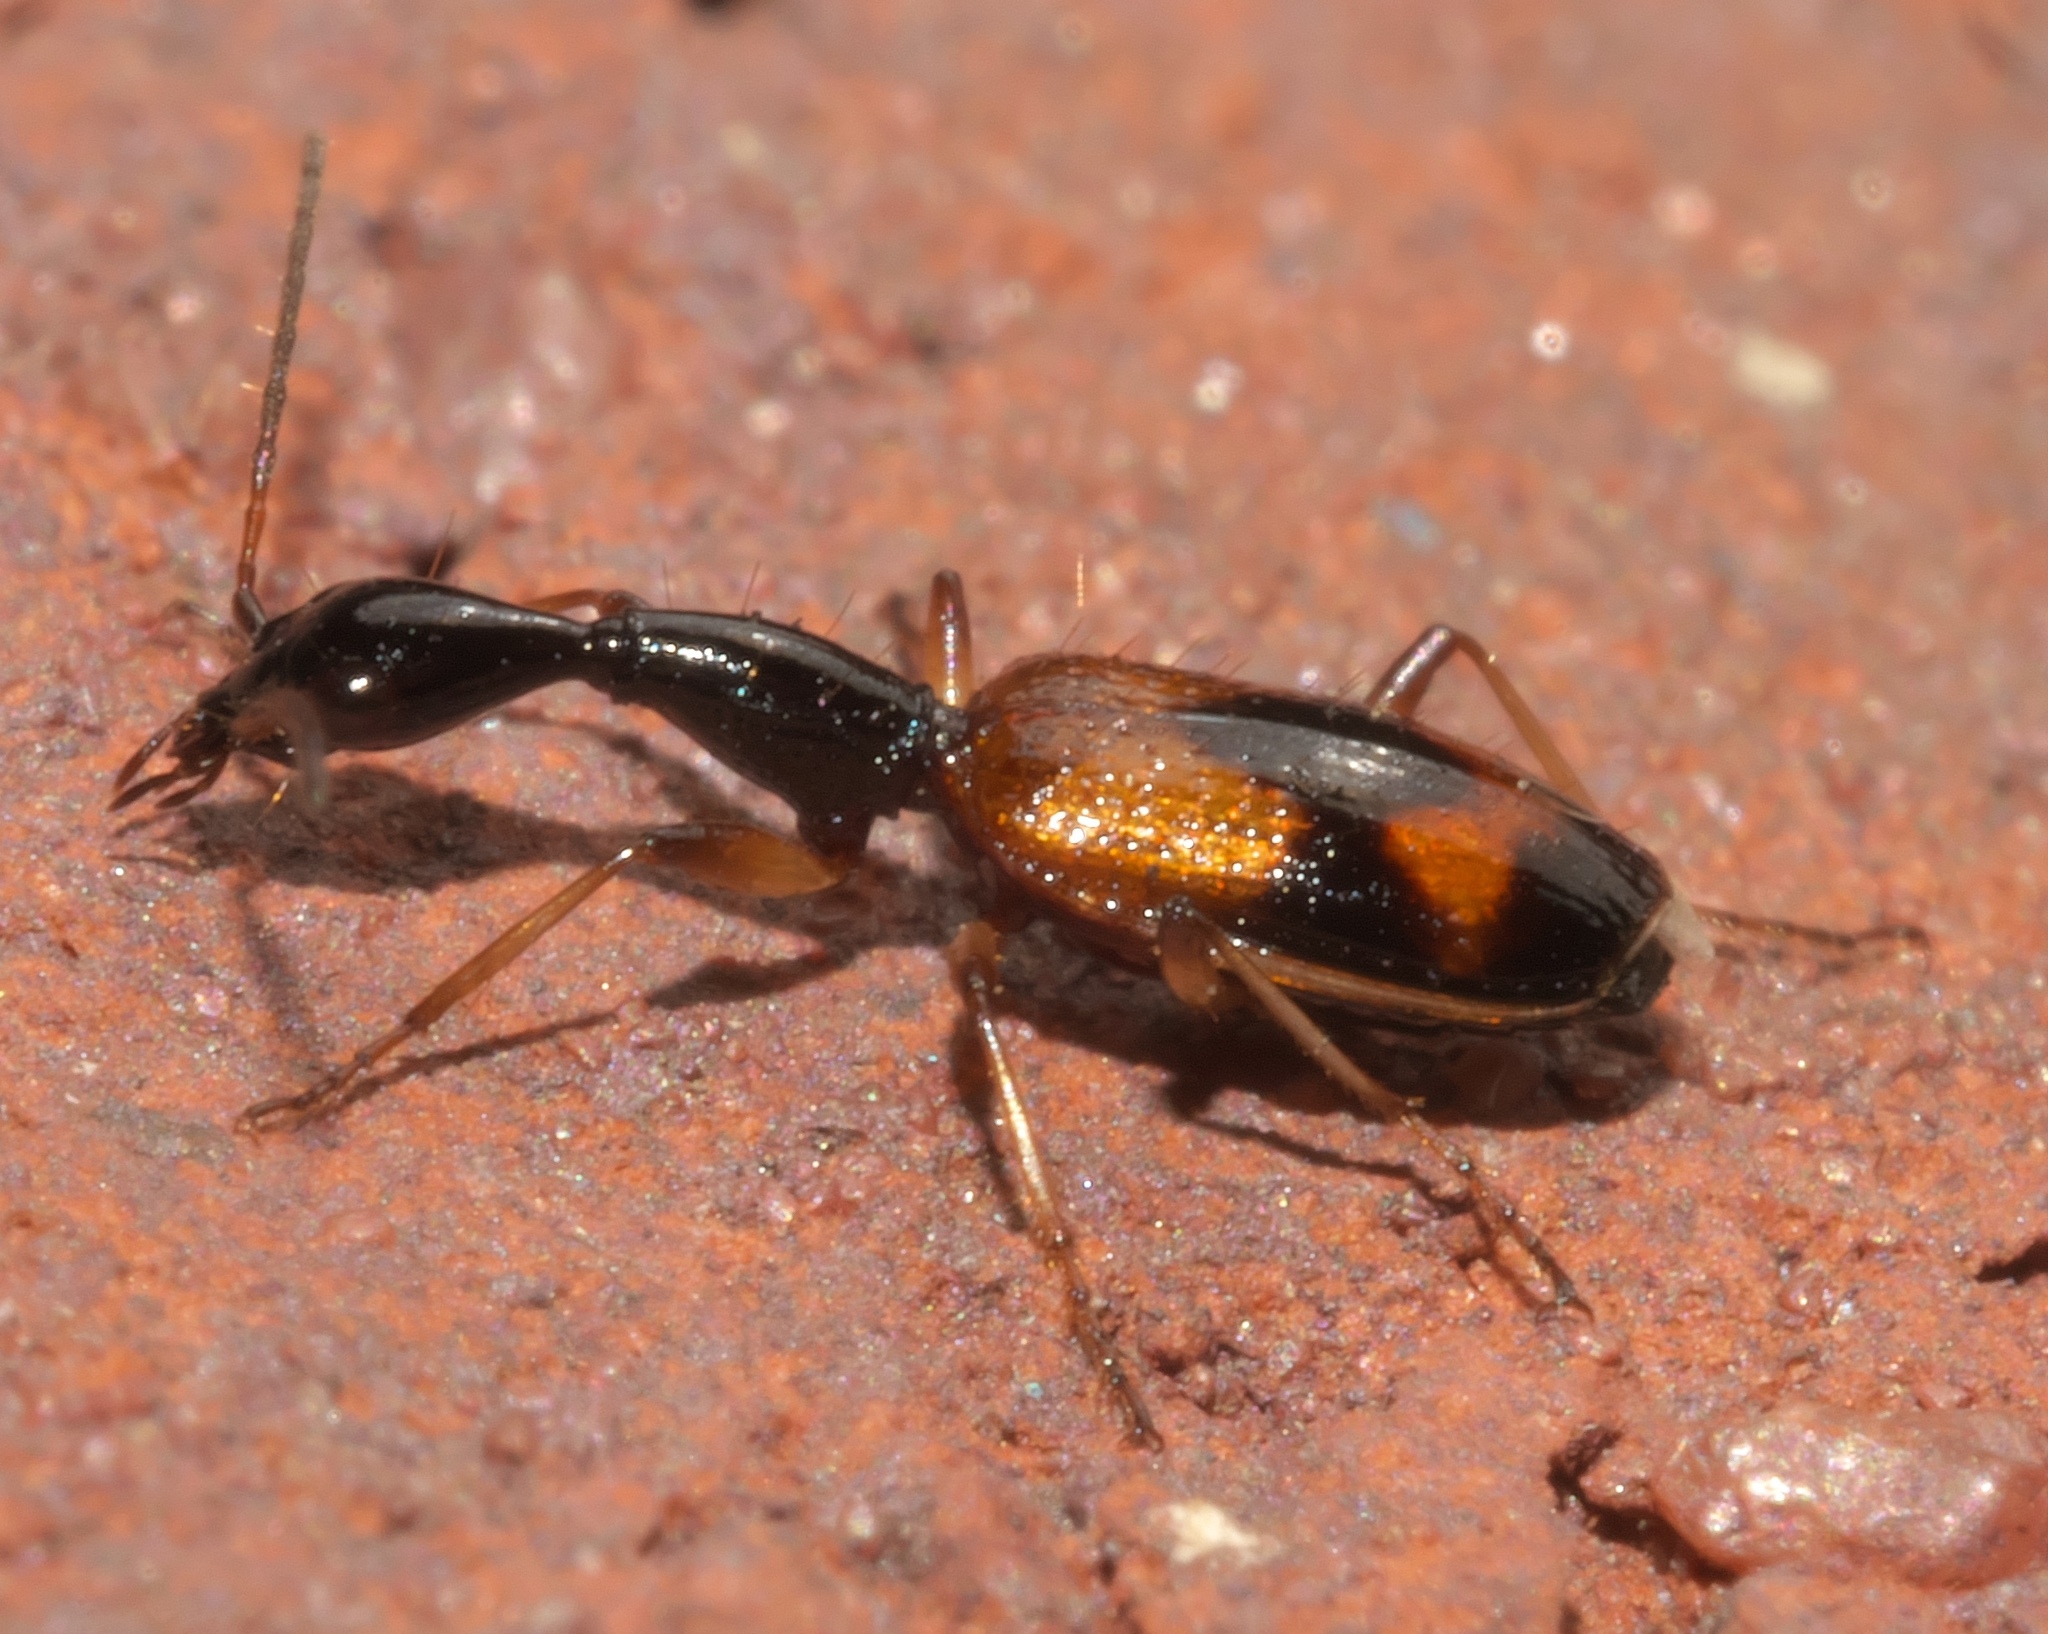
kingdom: Animalia
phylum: Arthropoda
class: Insecta
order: Coleoptera
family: Carabidae
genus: Colliuris
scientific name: Colliuris pensylvanica
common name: Long-necked ground beetle
